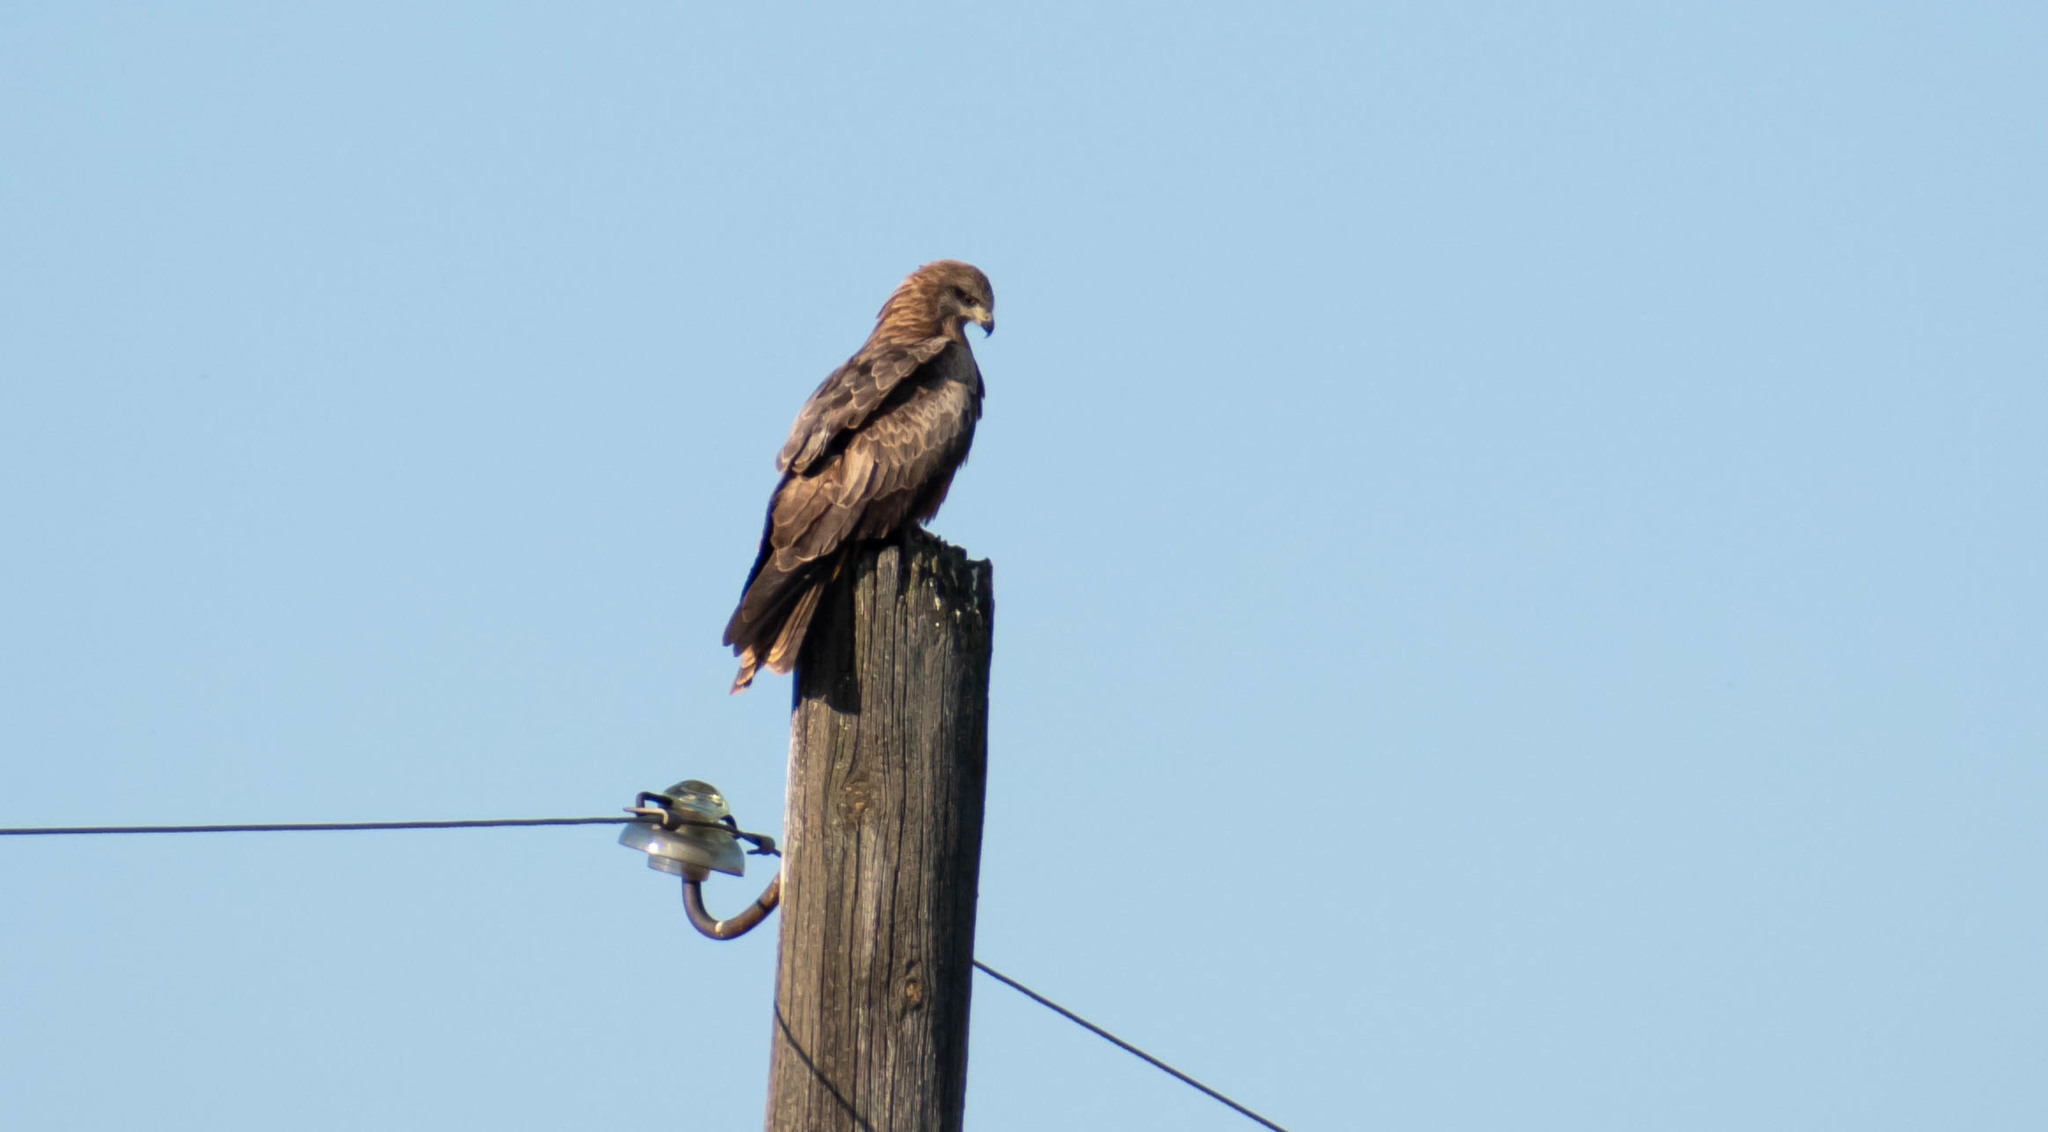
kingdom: Animalia
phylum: Chordata
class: Aves
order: Accipitriformes
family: Accipitridae
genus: Milvus
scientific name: Milvus migrans
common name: Black kite
